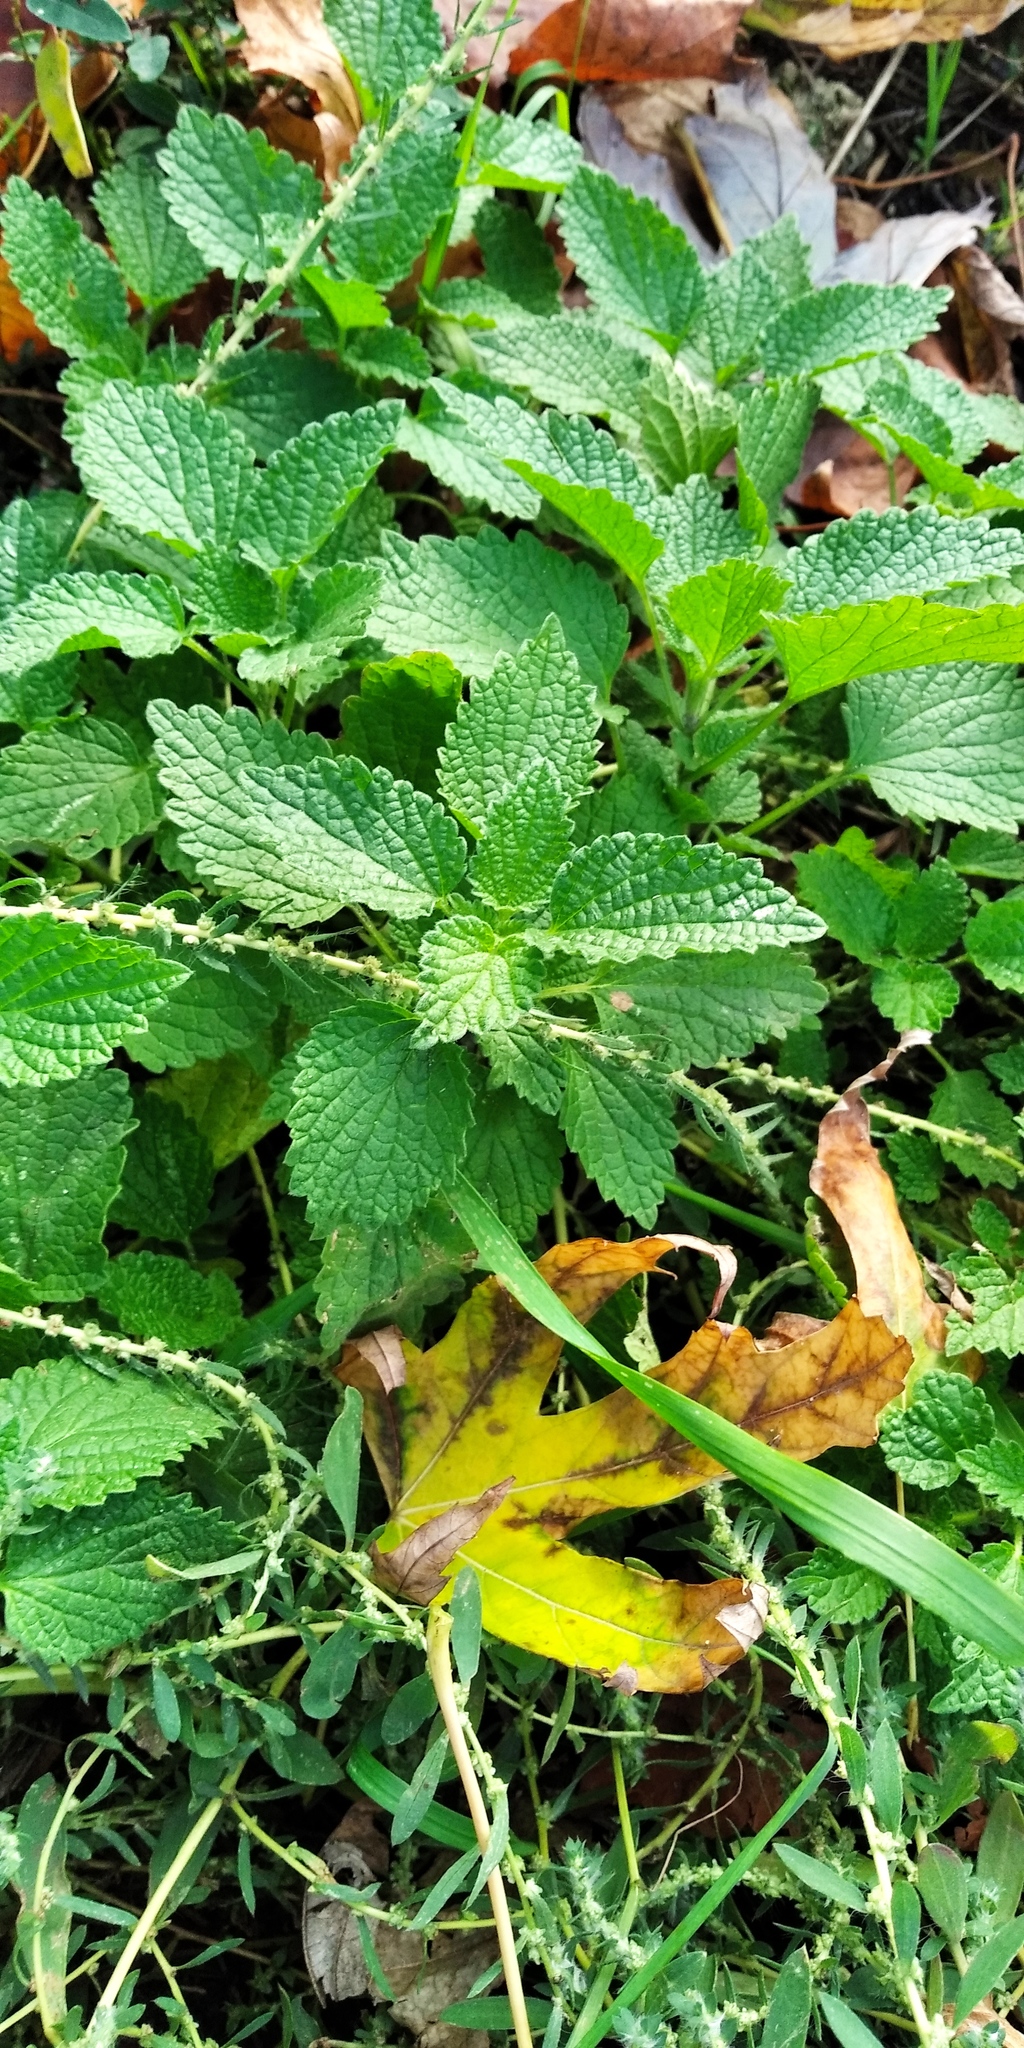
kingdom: Plantae
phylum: Tracheophyta
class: Magnoliopsida
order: Lamiales
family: Lamiaceae
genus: Ballota
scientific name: Ballota nigra
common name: Black horehound
